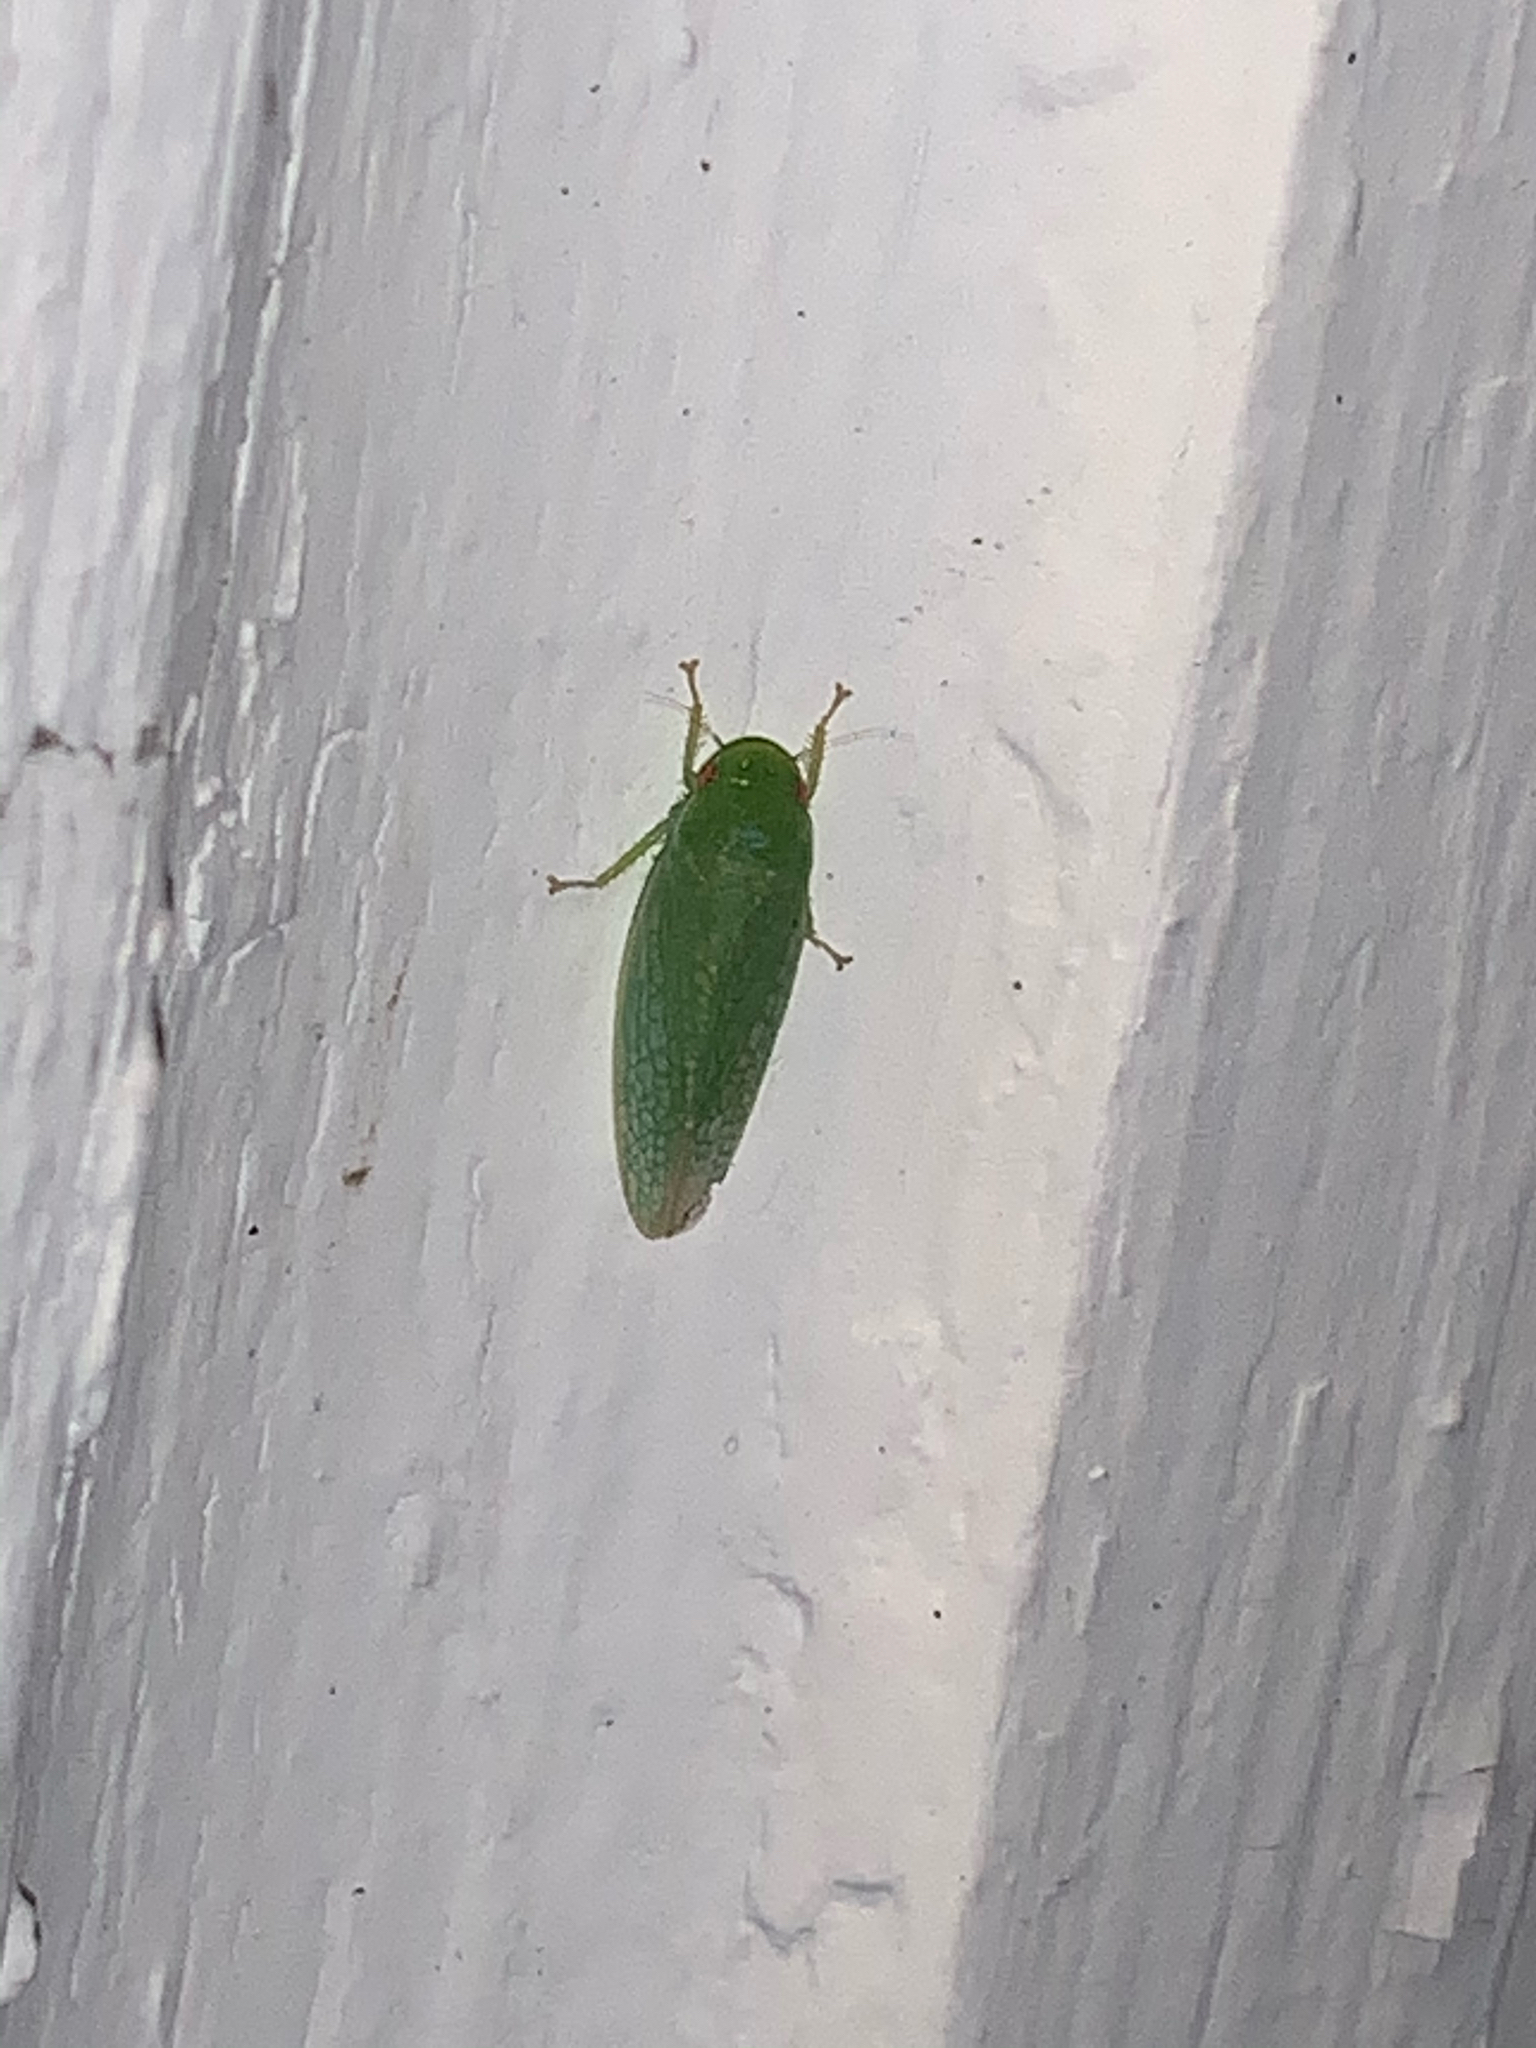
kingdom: Animalia
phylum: Arthropoda
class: Insecta
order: Hemiptera
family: Cicadellidae
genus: Gyponana
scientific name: Gyponana
